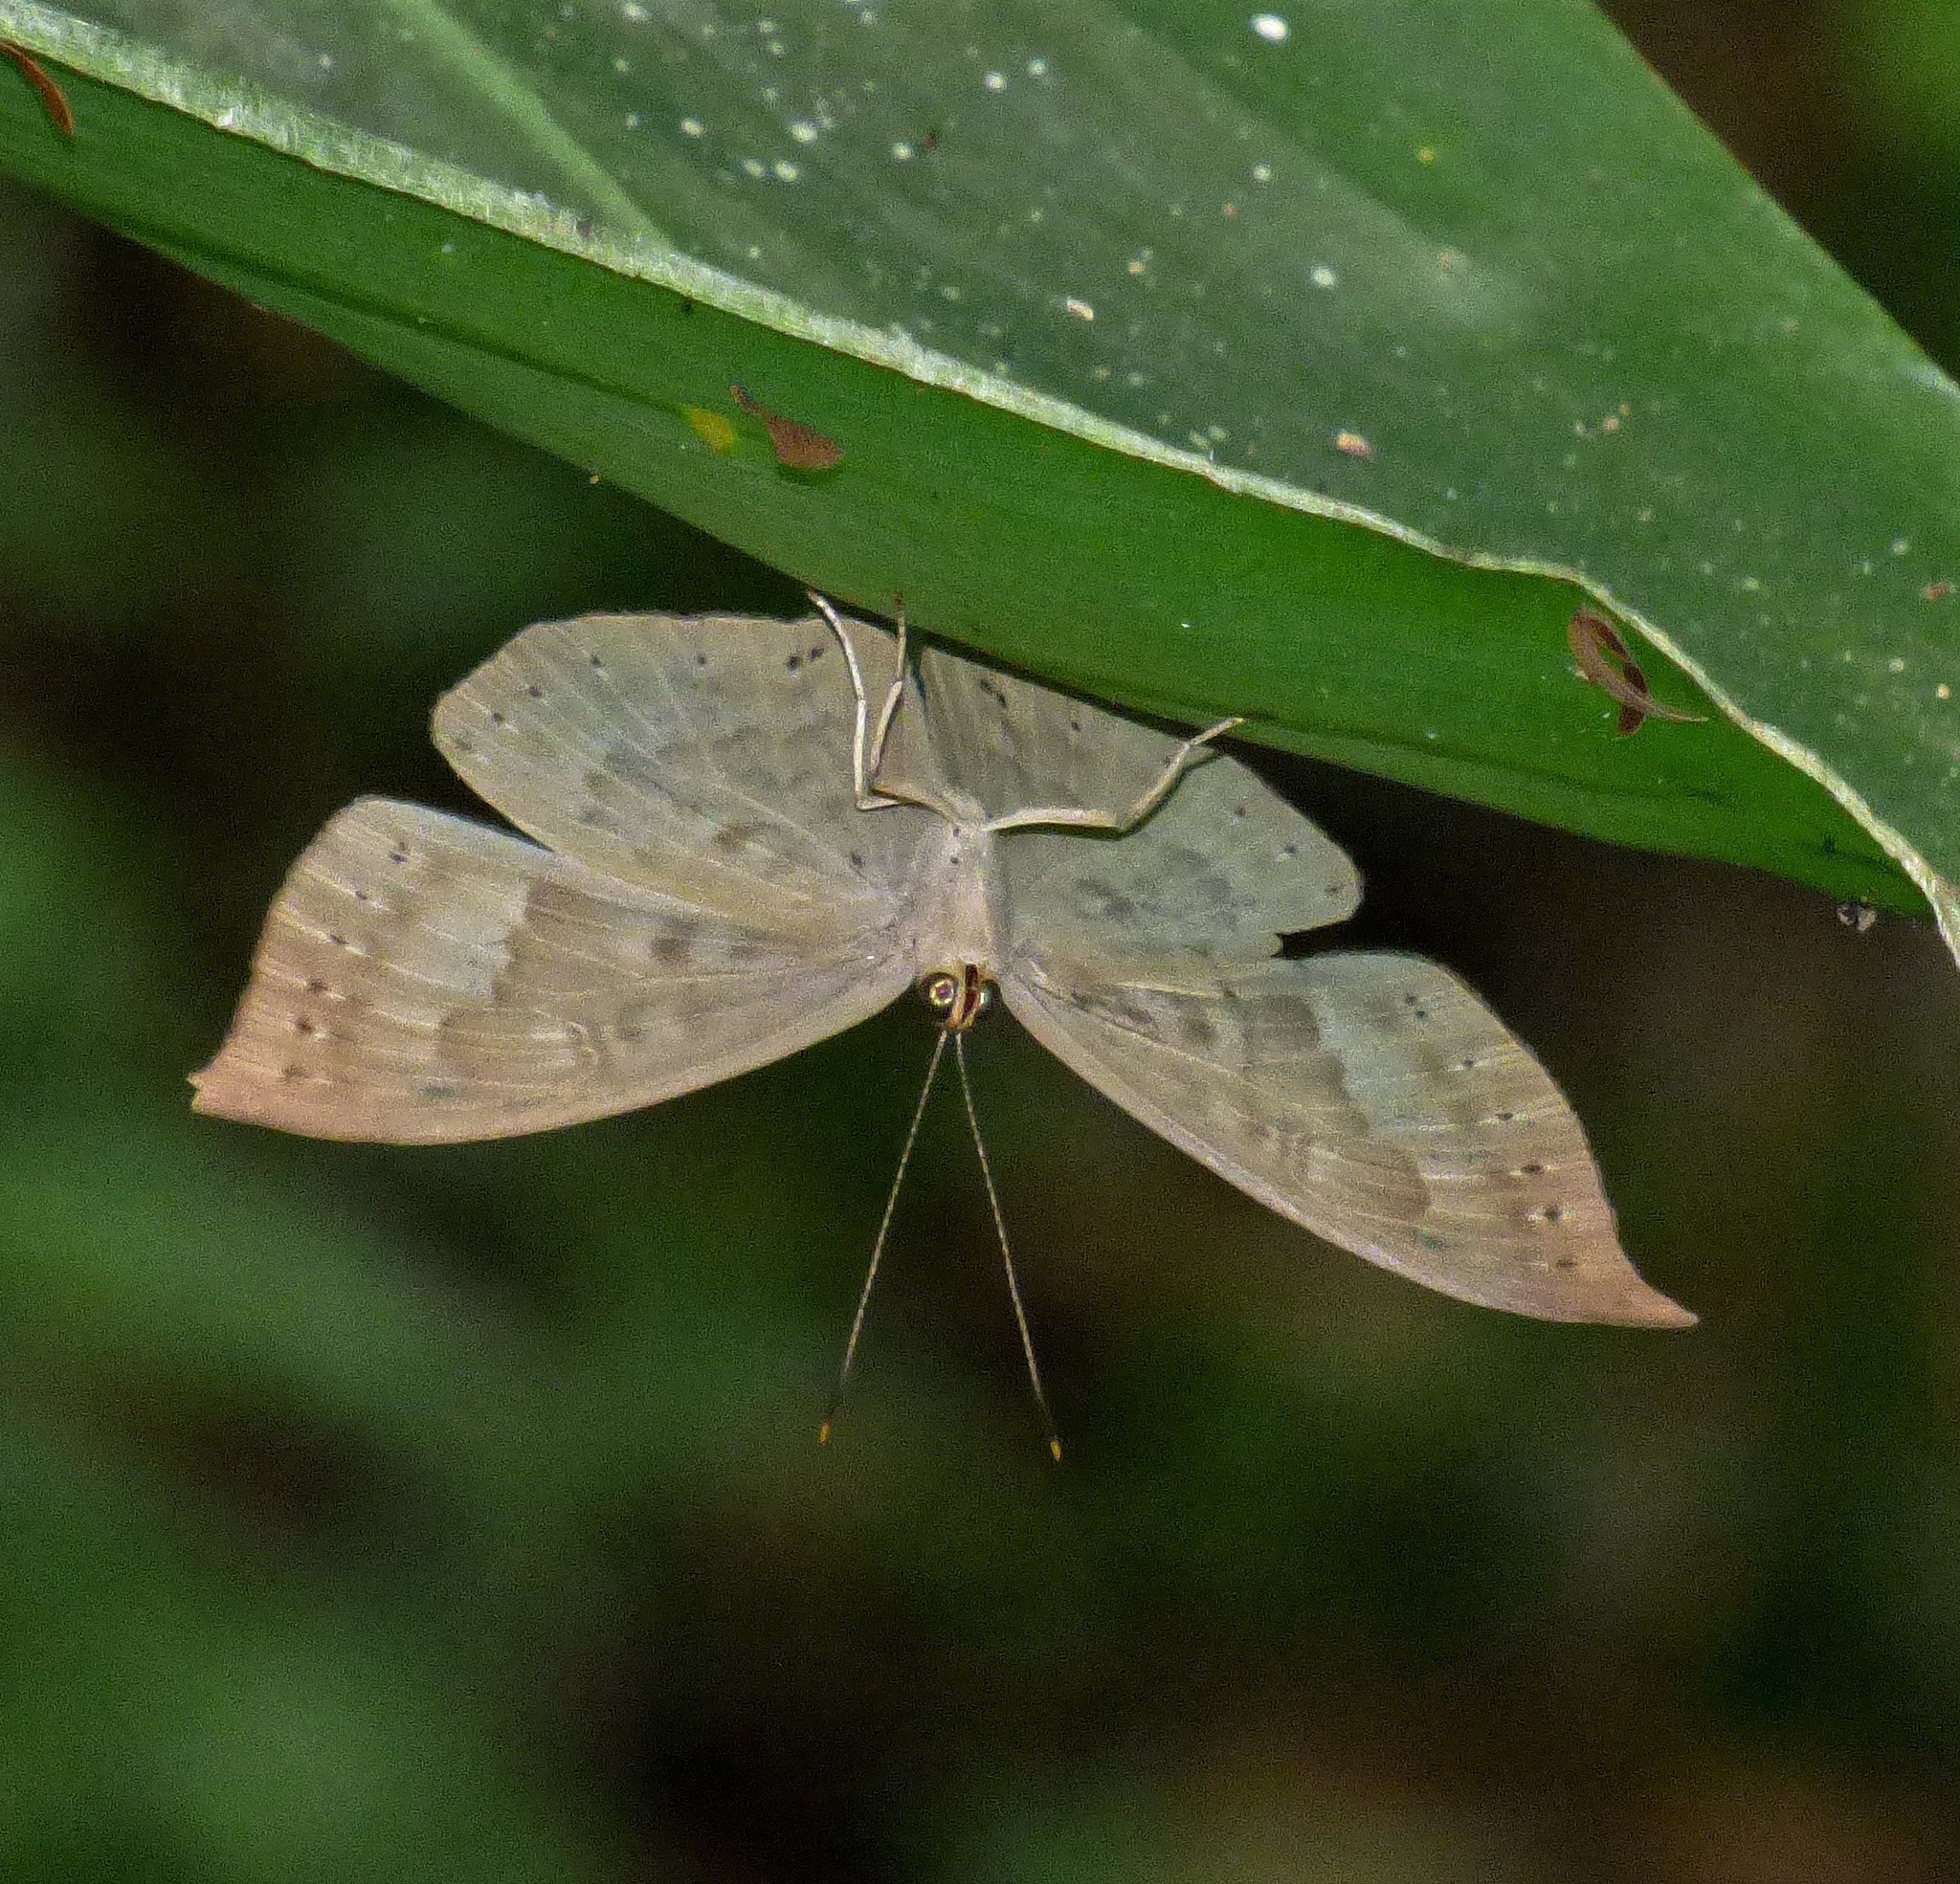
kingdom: Animalia
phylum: Cnidaria
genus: Eurybia
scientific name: Eurybia pergaea
